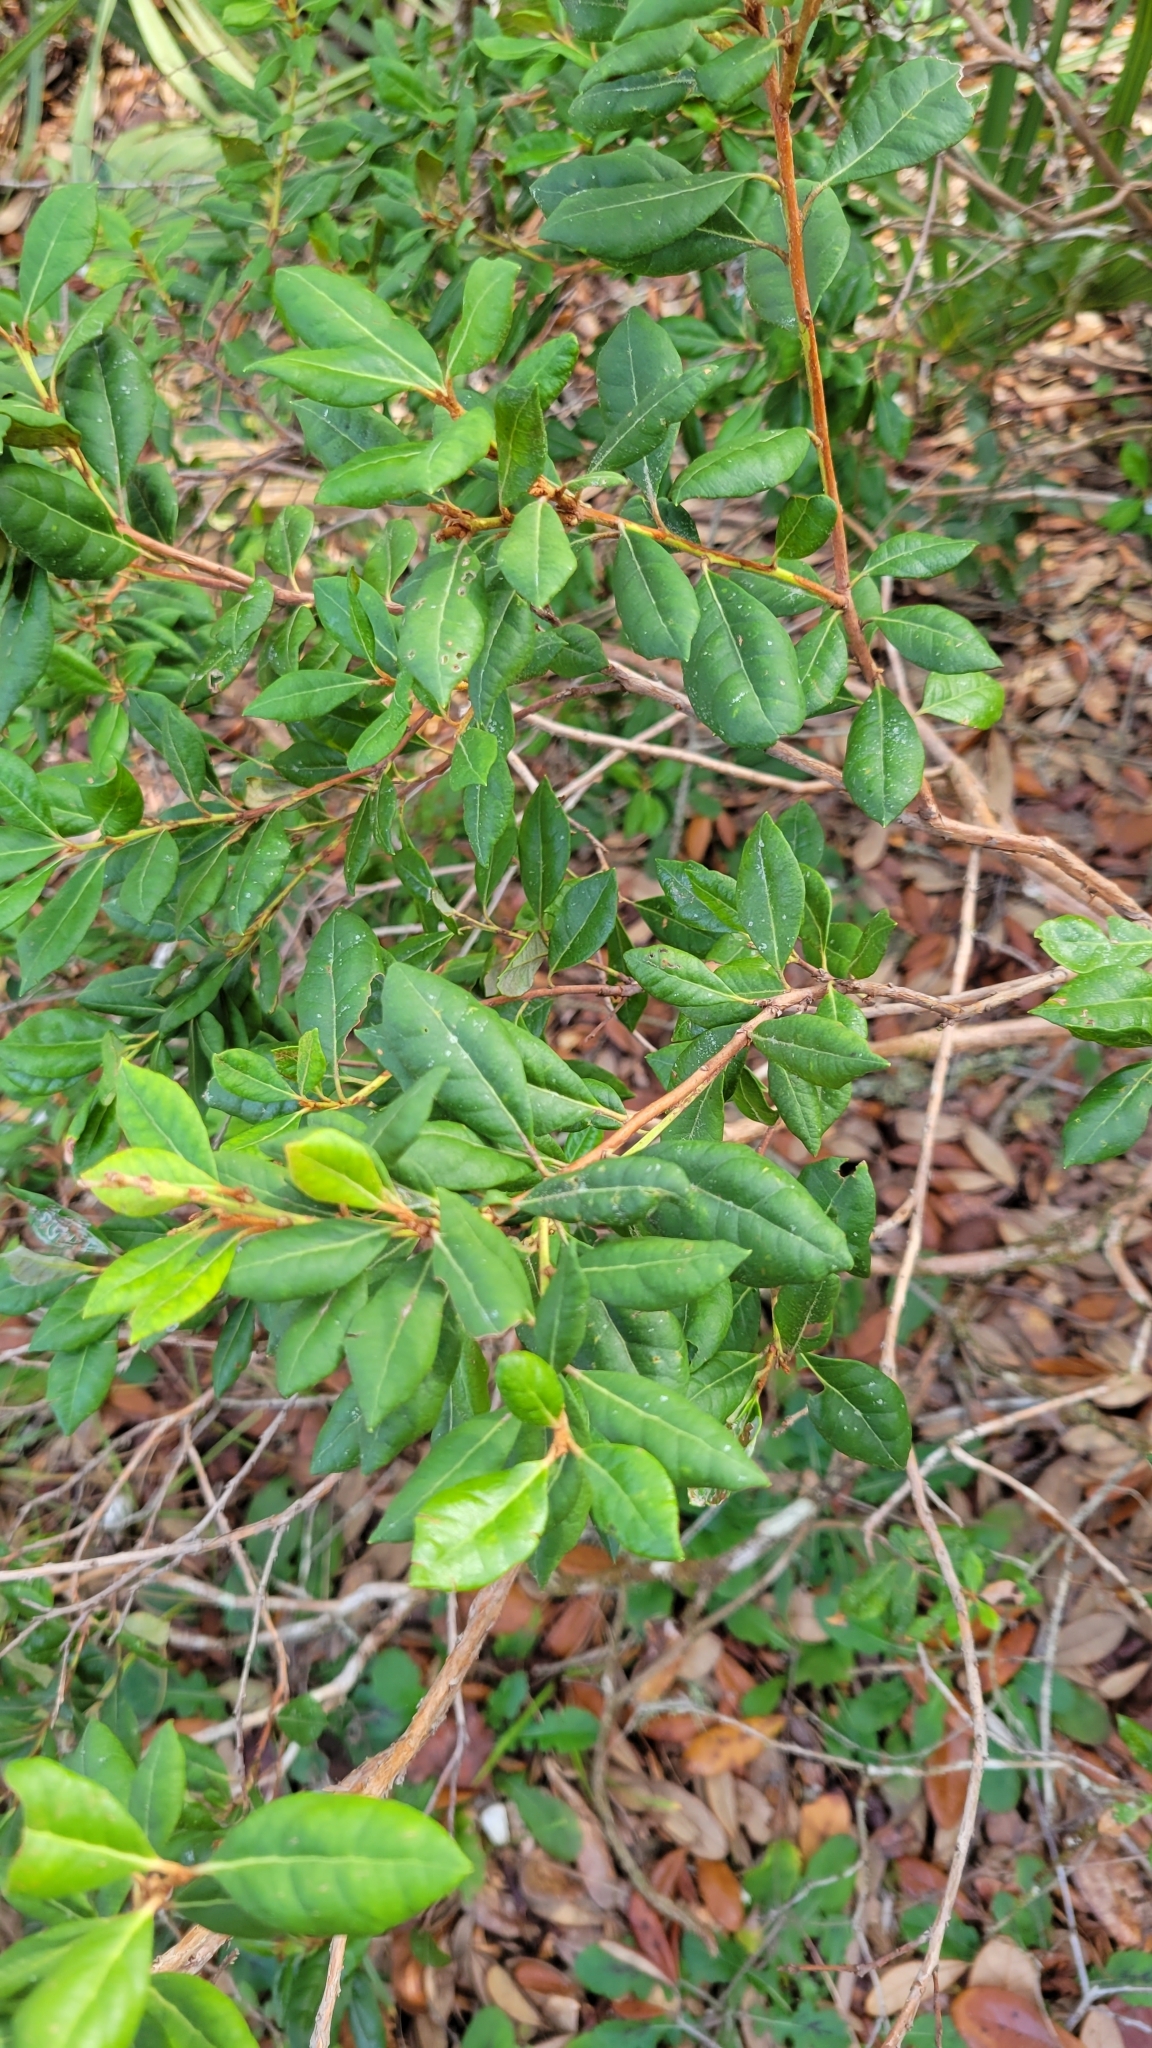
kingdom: Plantae
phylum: Tracheophyta
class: Magnoliopsida
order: Ericales
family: Ericaceae
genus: Lyonia
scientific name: Lyonia ferruginea
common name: Rusty lyonia
